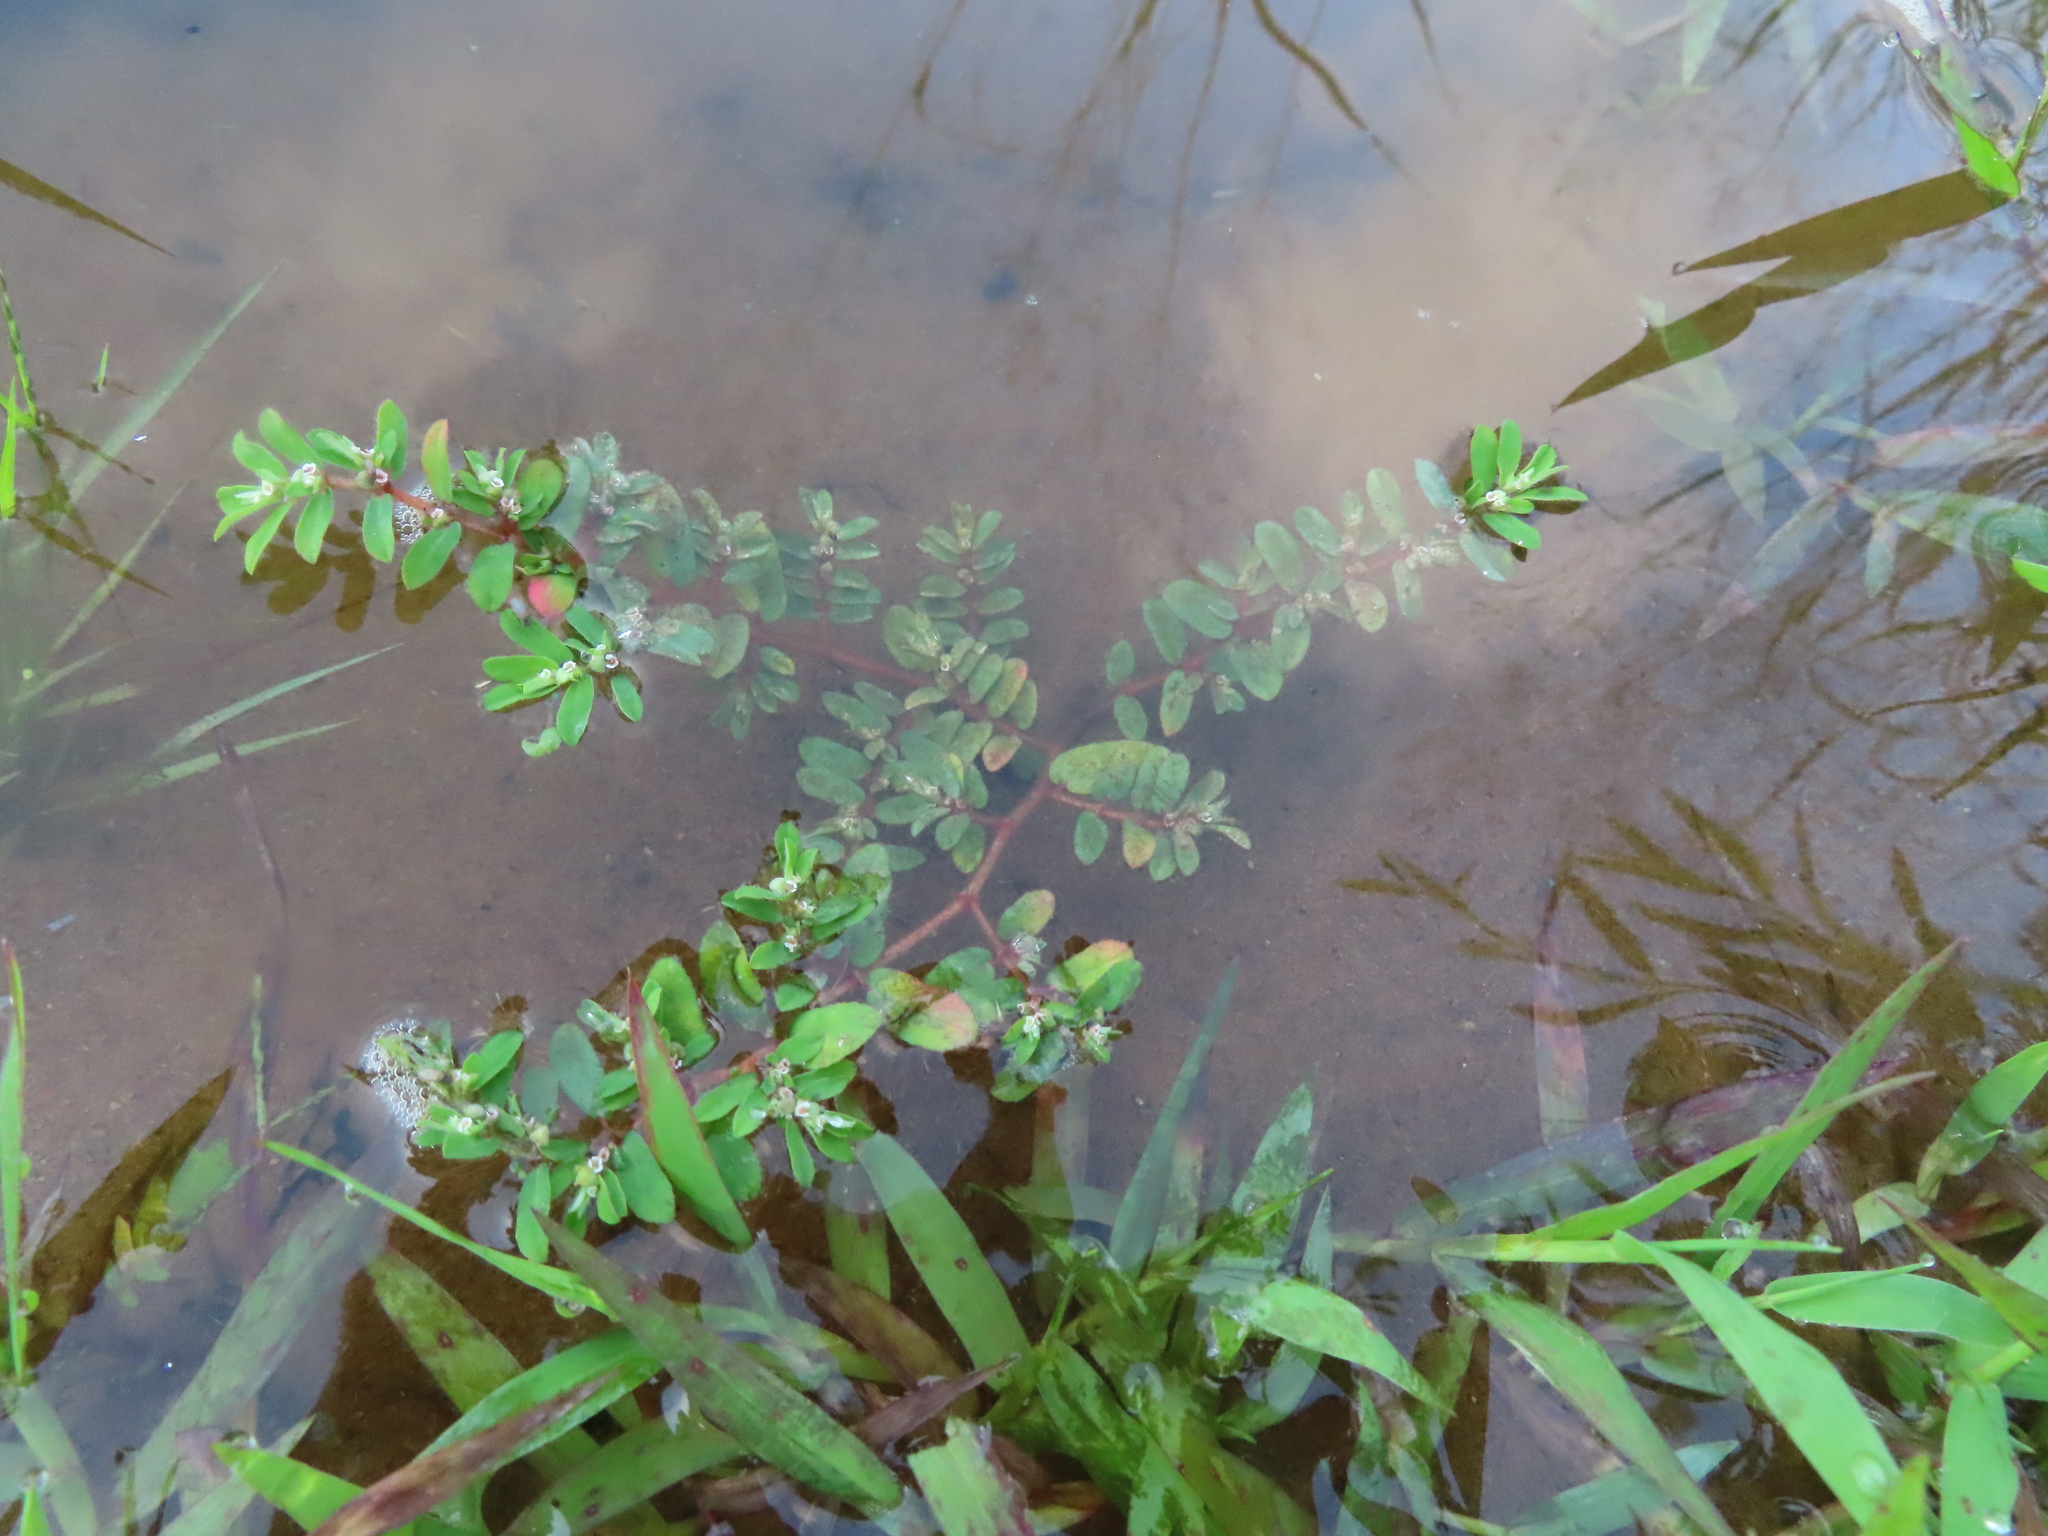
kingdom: Plantae
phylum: Tracheophyta
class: Magnoliopsida
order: Malpighiales
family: Euphorbiaceae
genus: Euphorbia
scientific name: Euphorbia maculata
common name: Spotted spurge
